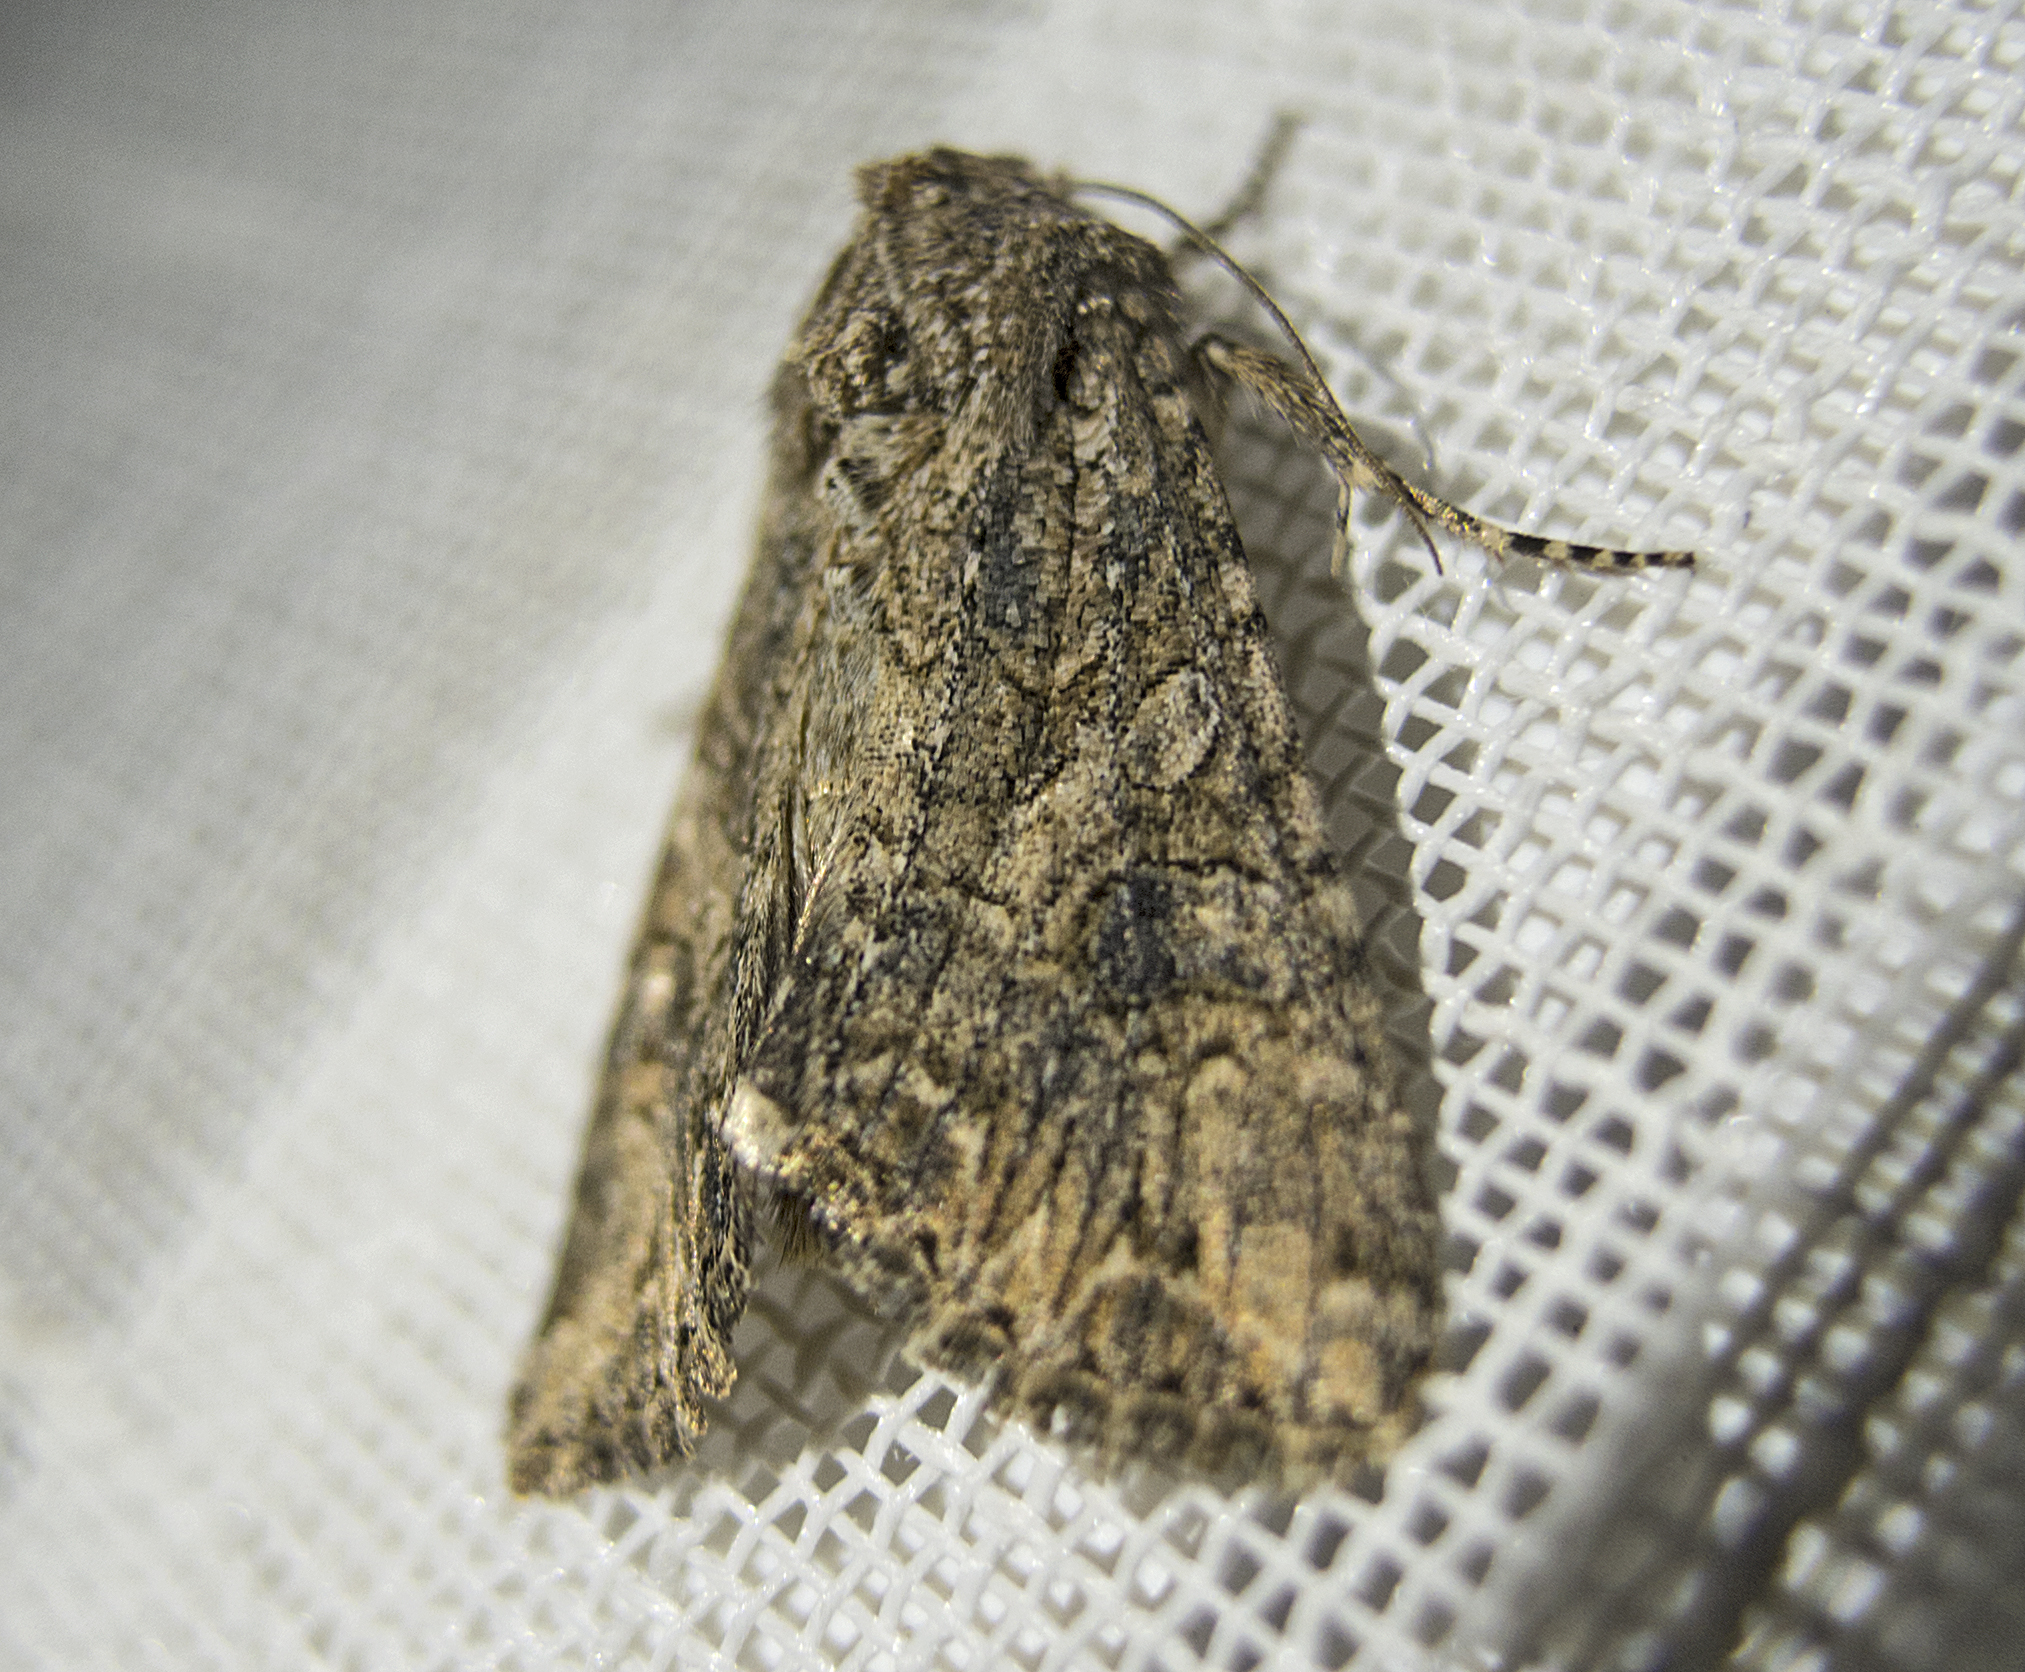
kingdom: Animalia
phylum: Arthropoda
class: Insecta
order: Lepidoptera
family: Noctuidae
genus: Anarta
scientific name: Anarta trifolii
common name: Clover cutworm moth
